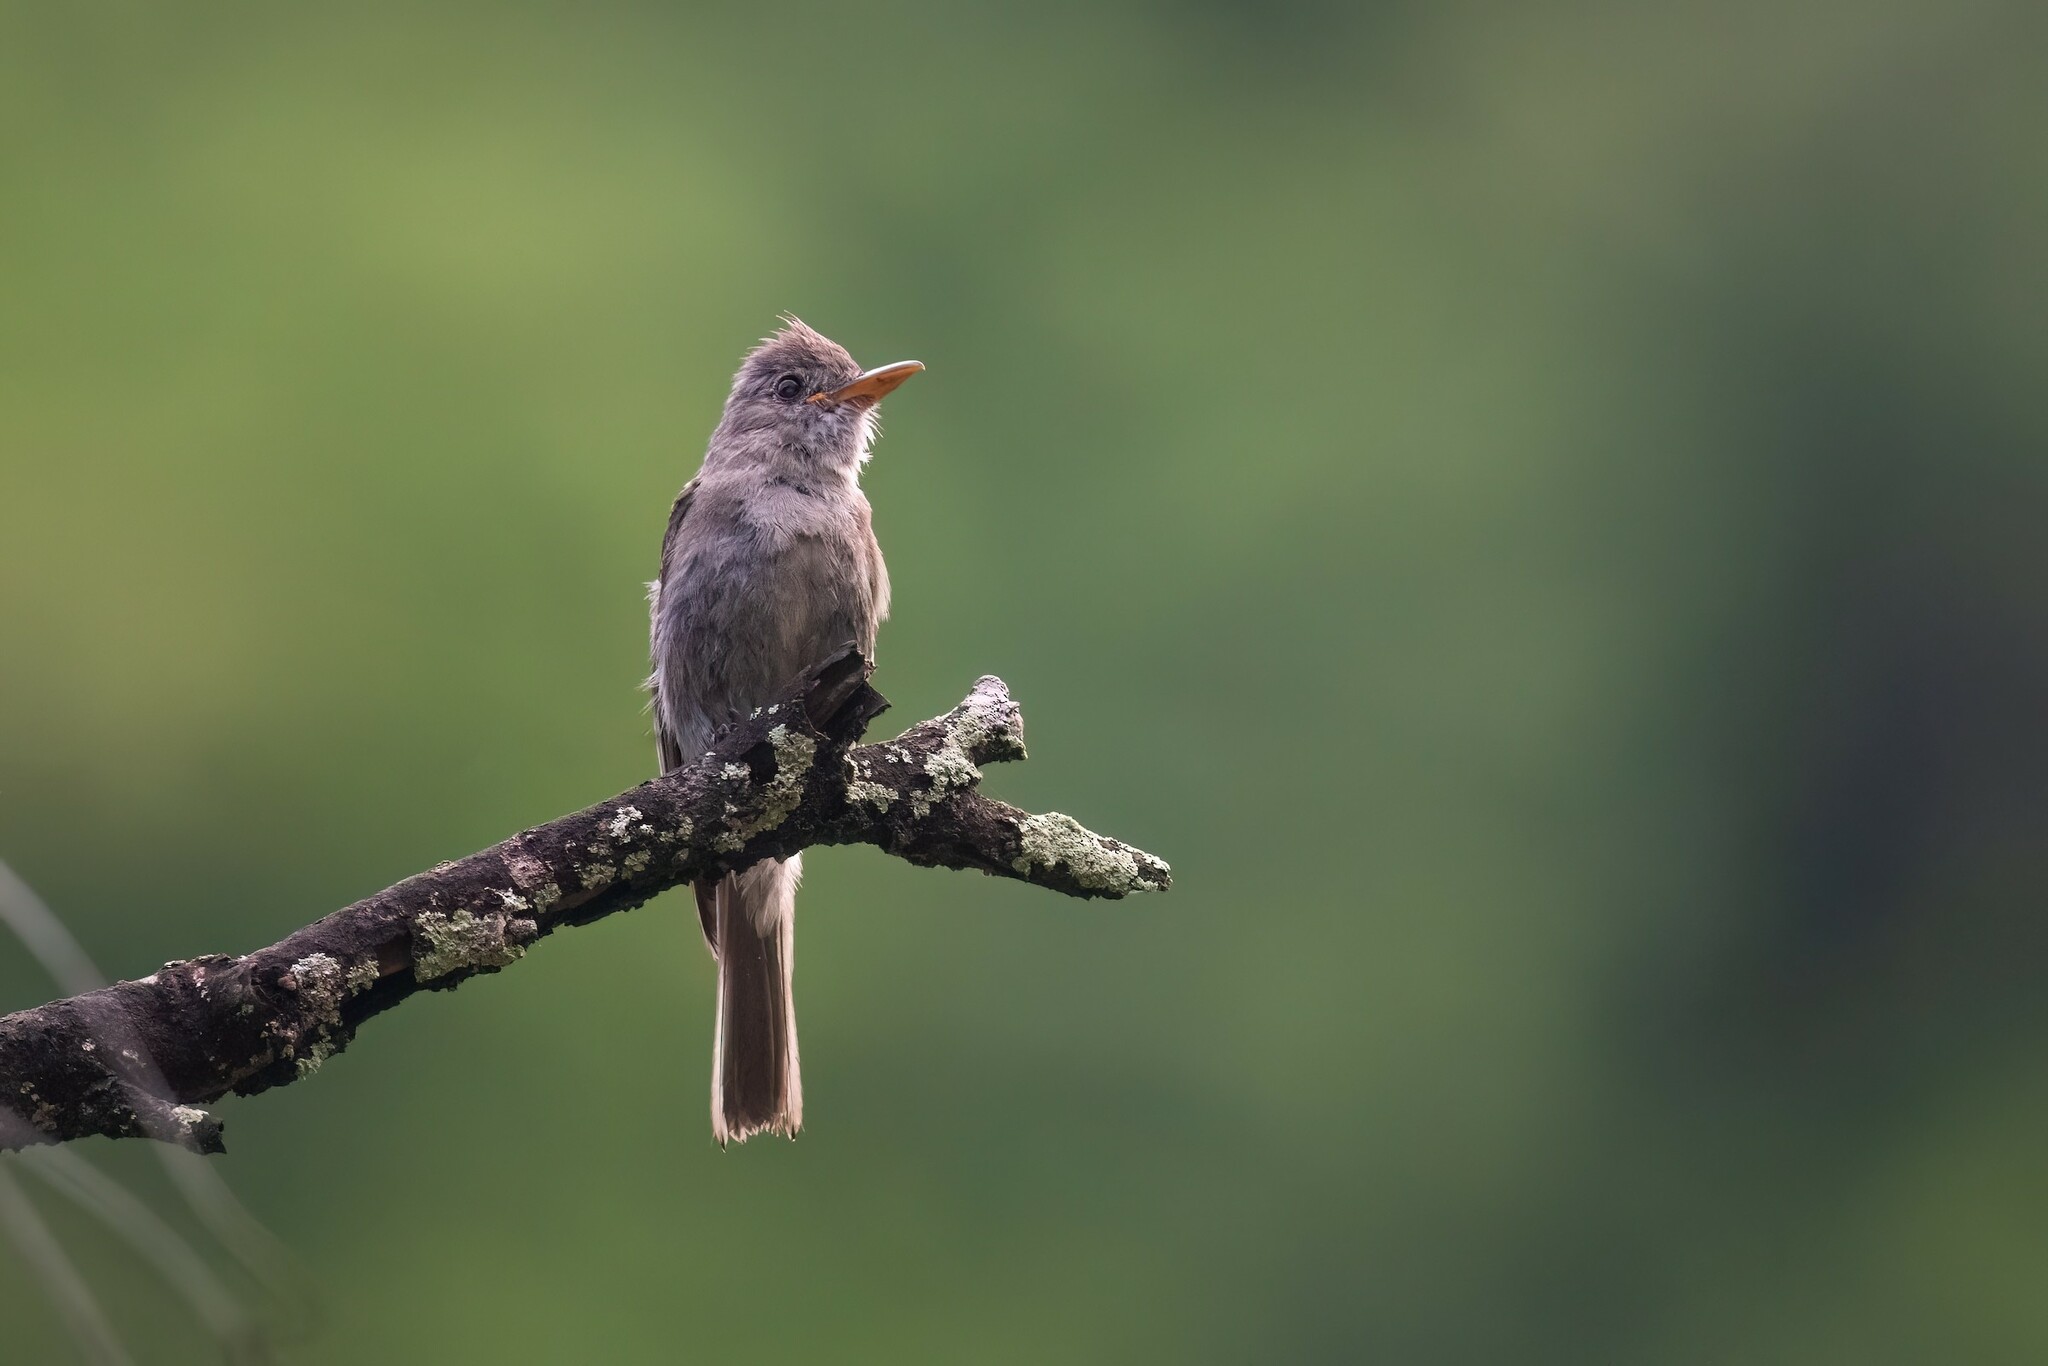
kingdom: Animalia
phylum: Chordata
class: Aves
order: Passeriformes
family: Tyrannidae
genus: Contopus
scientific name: Contopus pertinax
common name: Greater pewee
